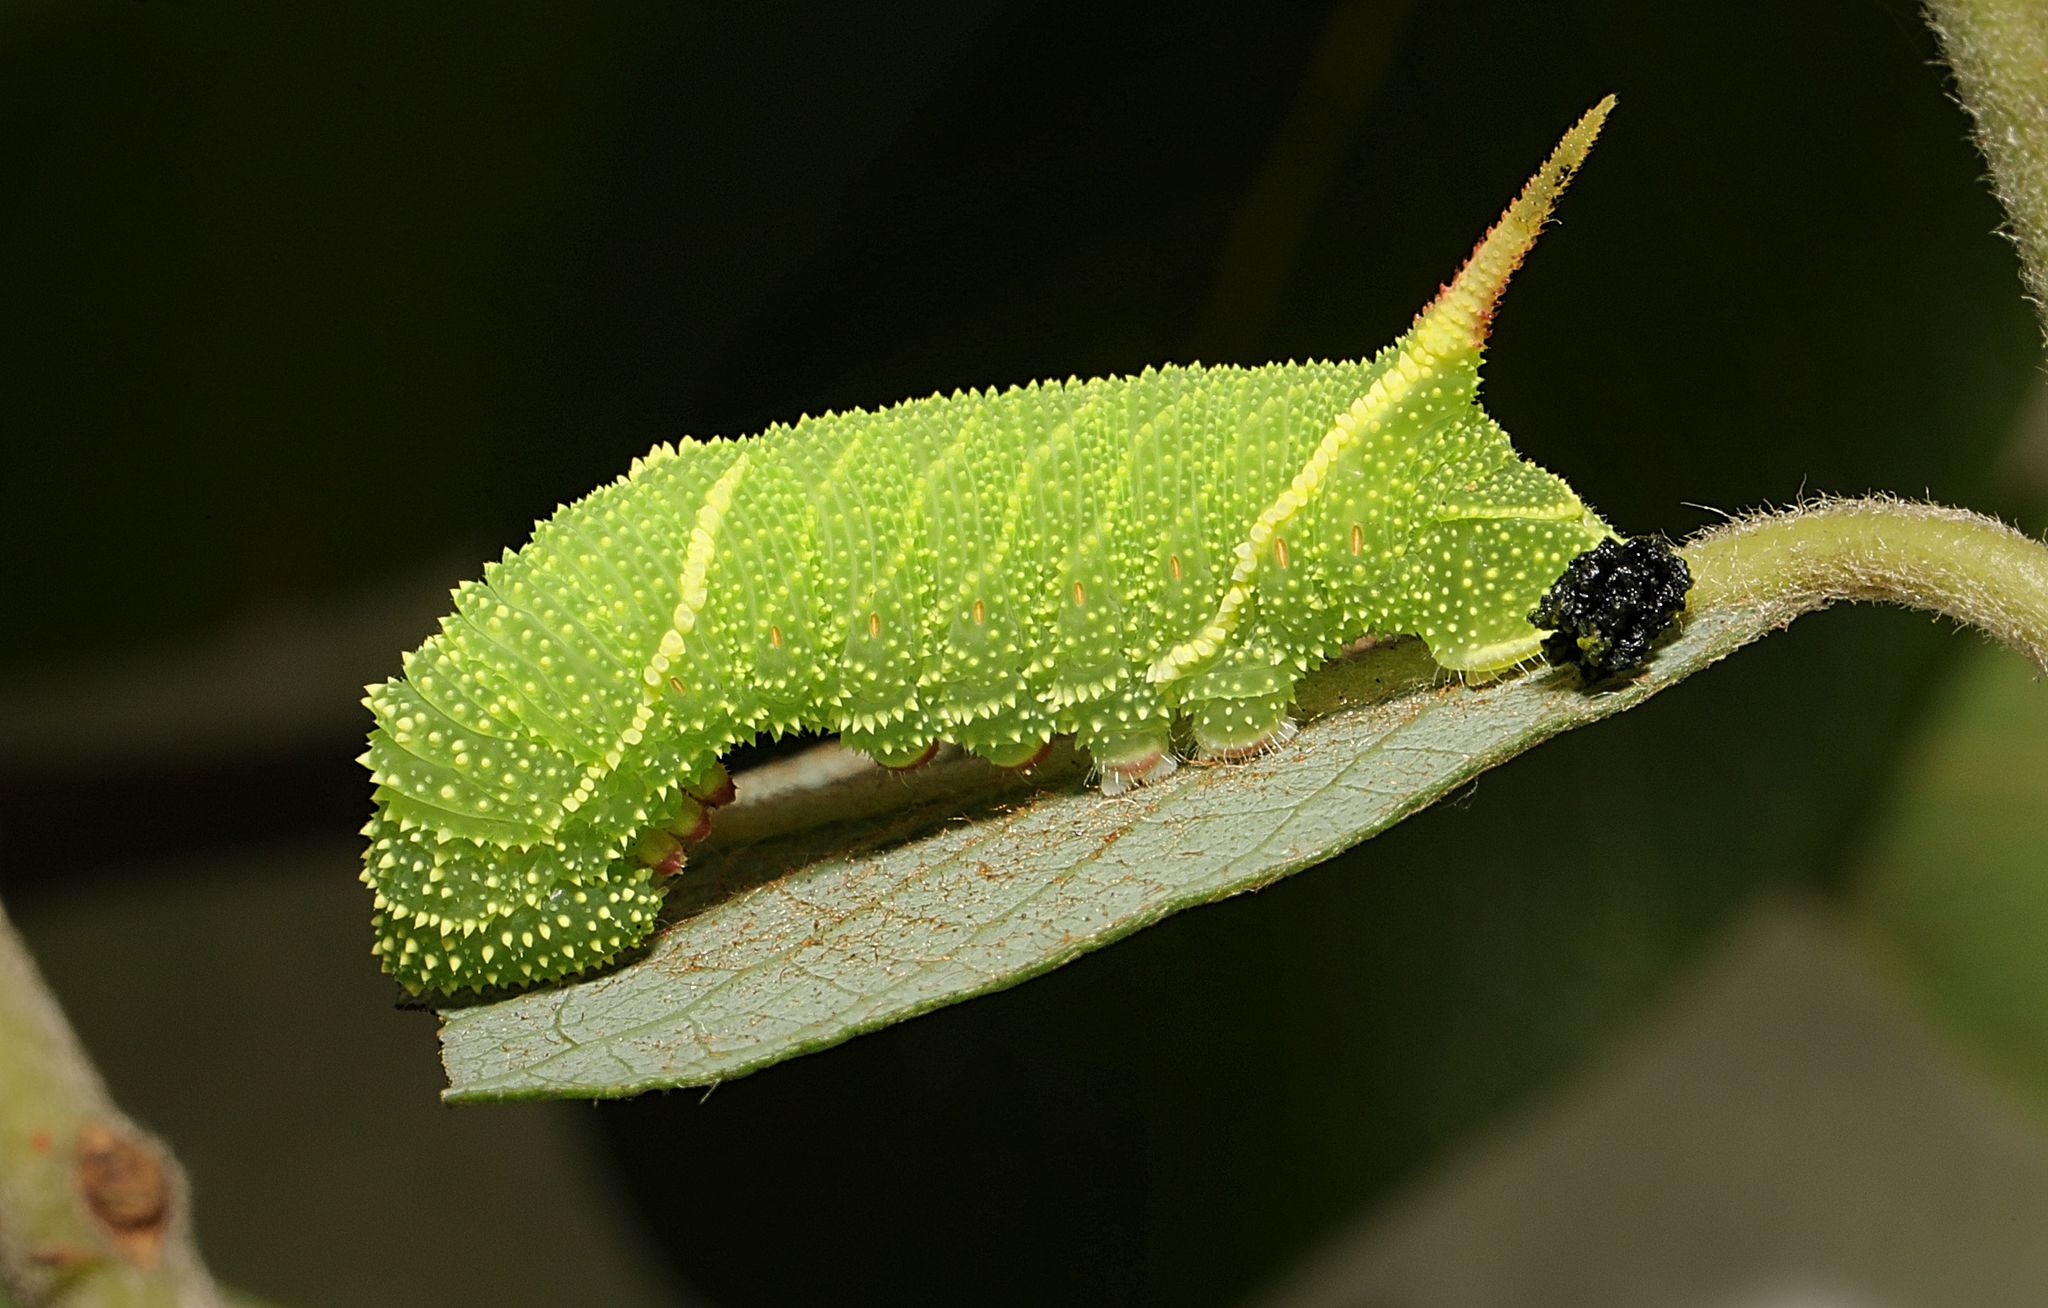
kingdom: Animalia
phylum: Arthropoda
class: Insecta
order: Lepidoptera
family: Sphingidae
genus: Laothoe
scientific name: Laothoe populi
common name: Poplar hawk-moth
